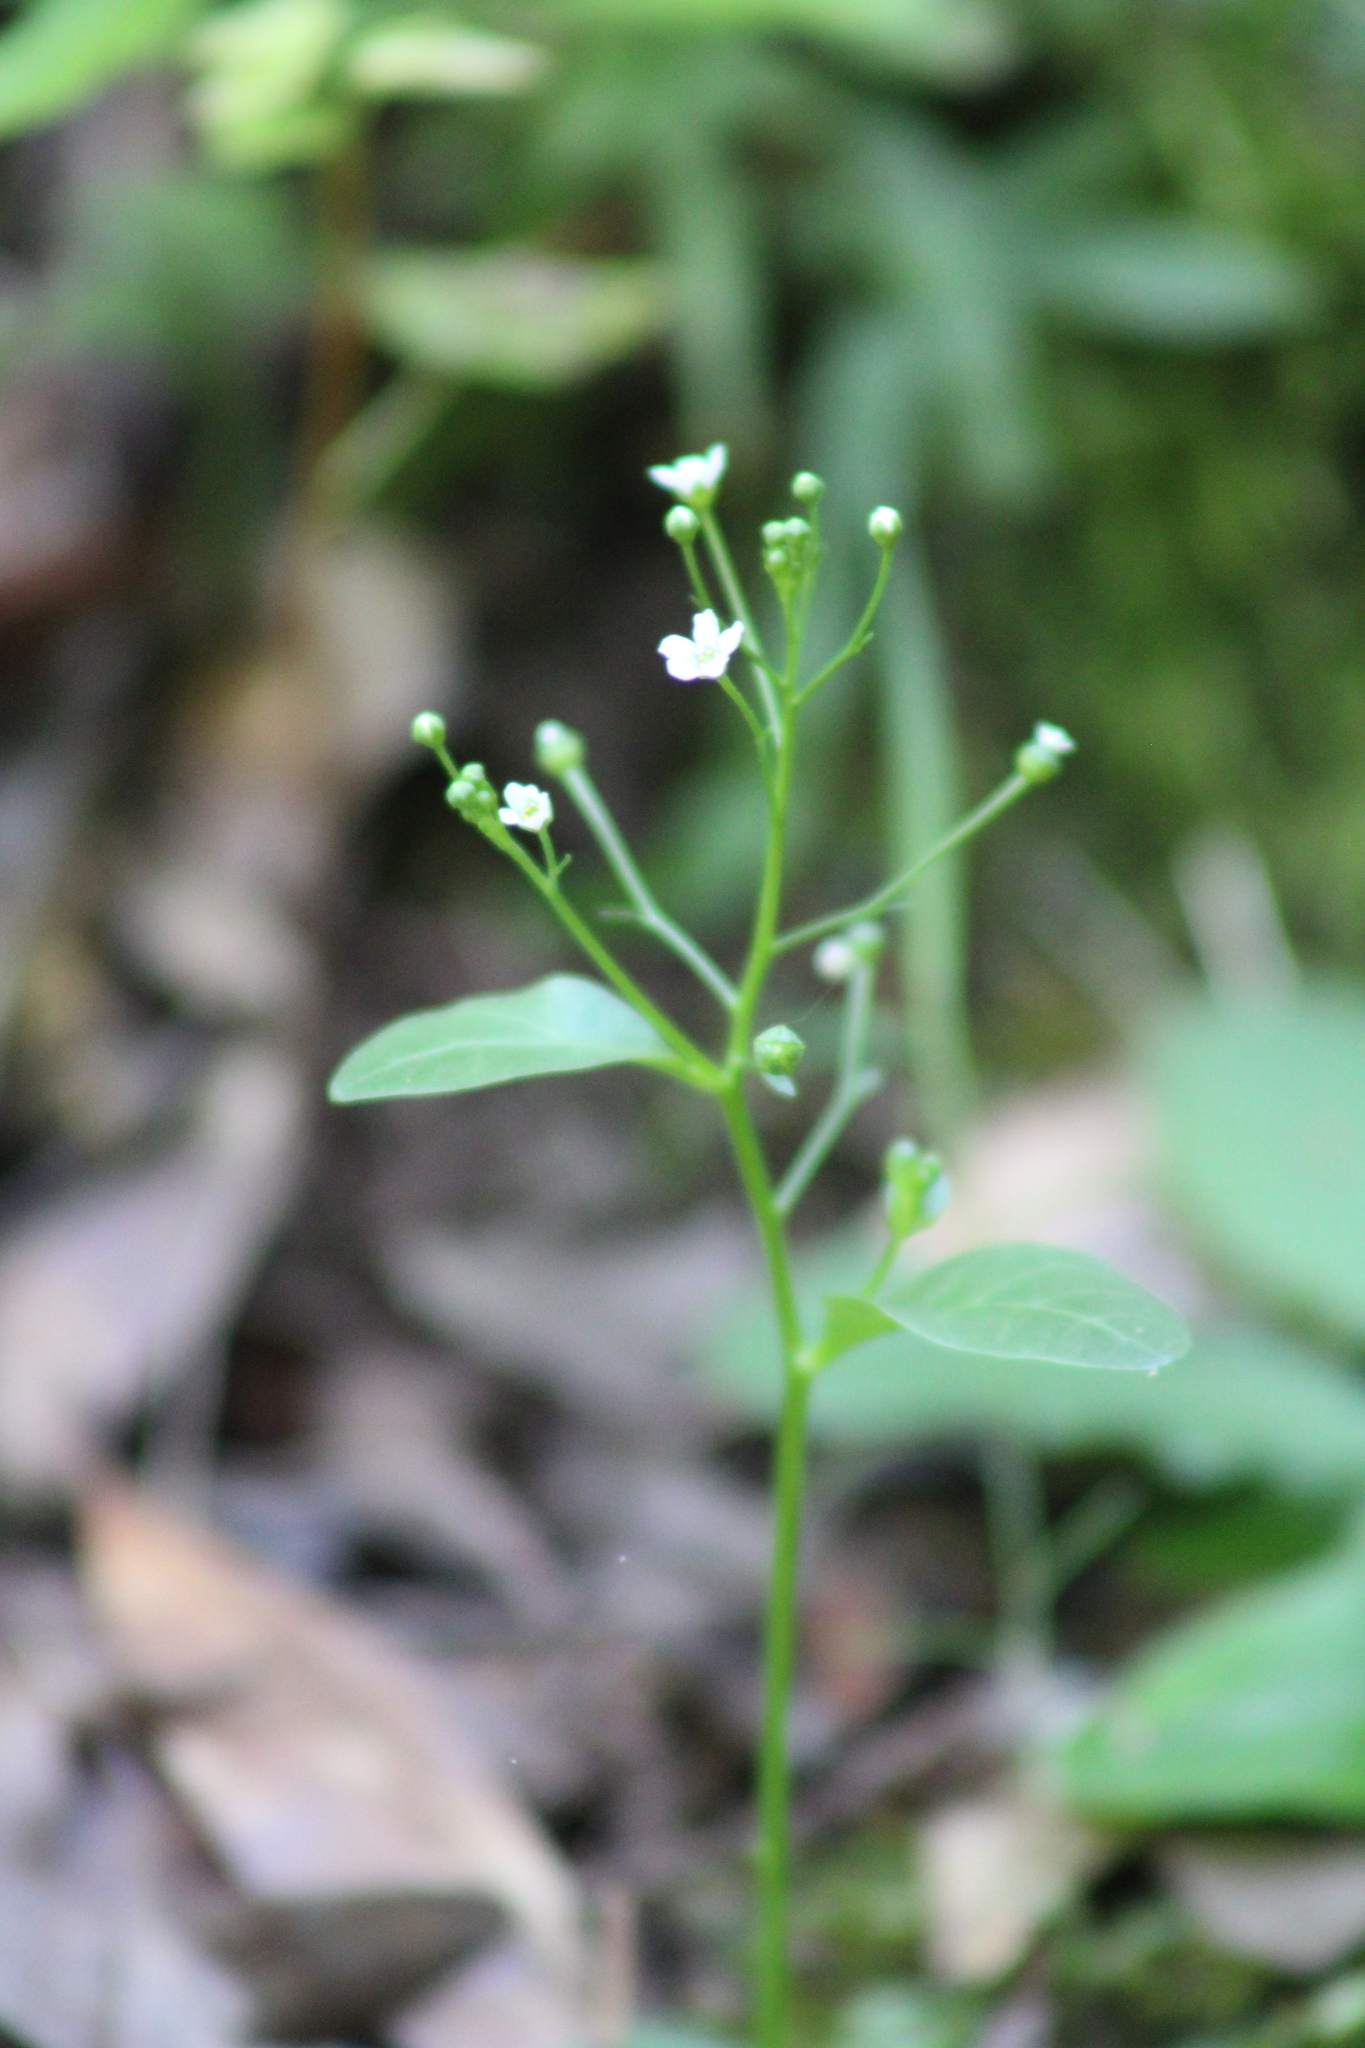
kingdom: Plantae
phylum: Tracheophyta
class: Magnoliopsida
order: Ericales
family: Primulaceae
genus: Samolus
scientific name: Samolus parviflorus
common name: False water pimpernel
